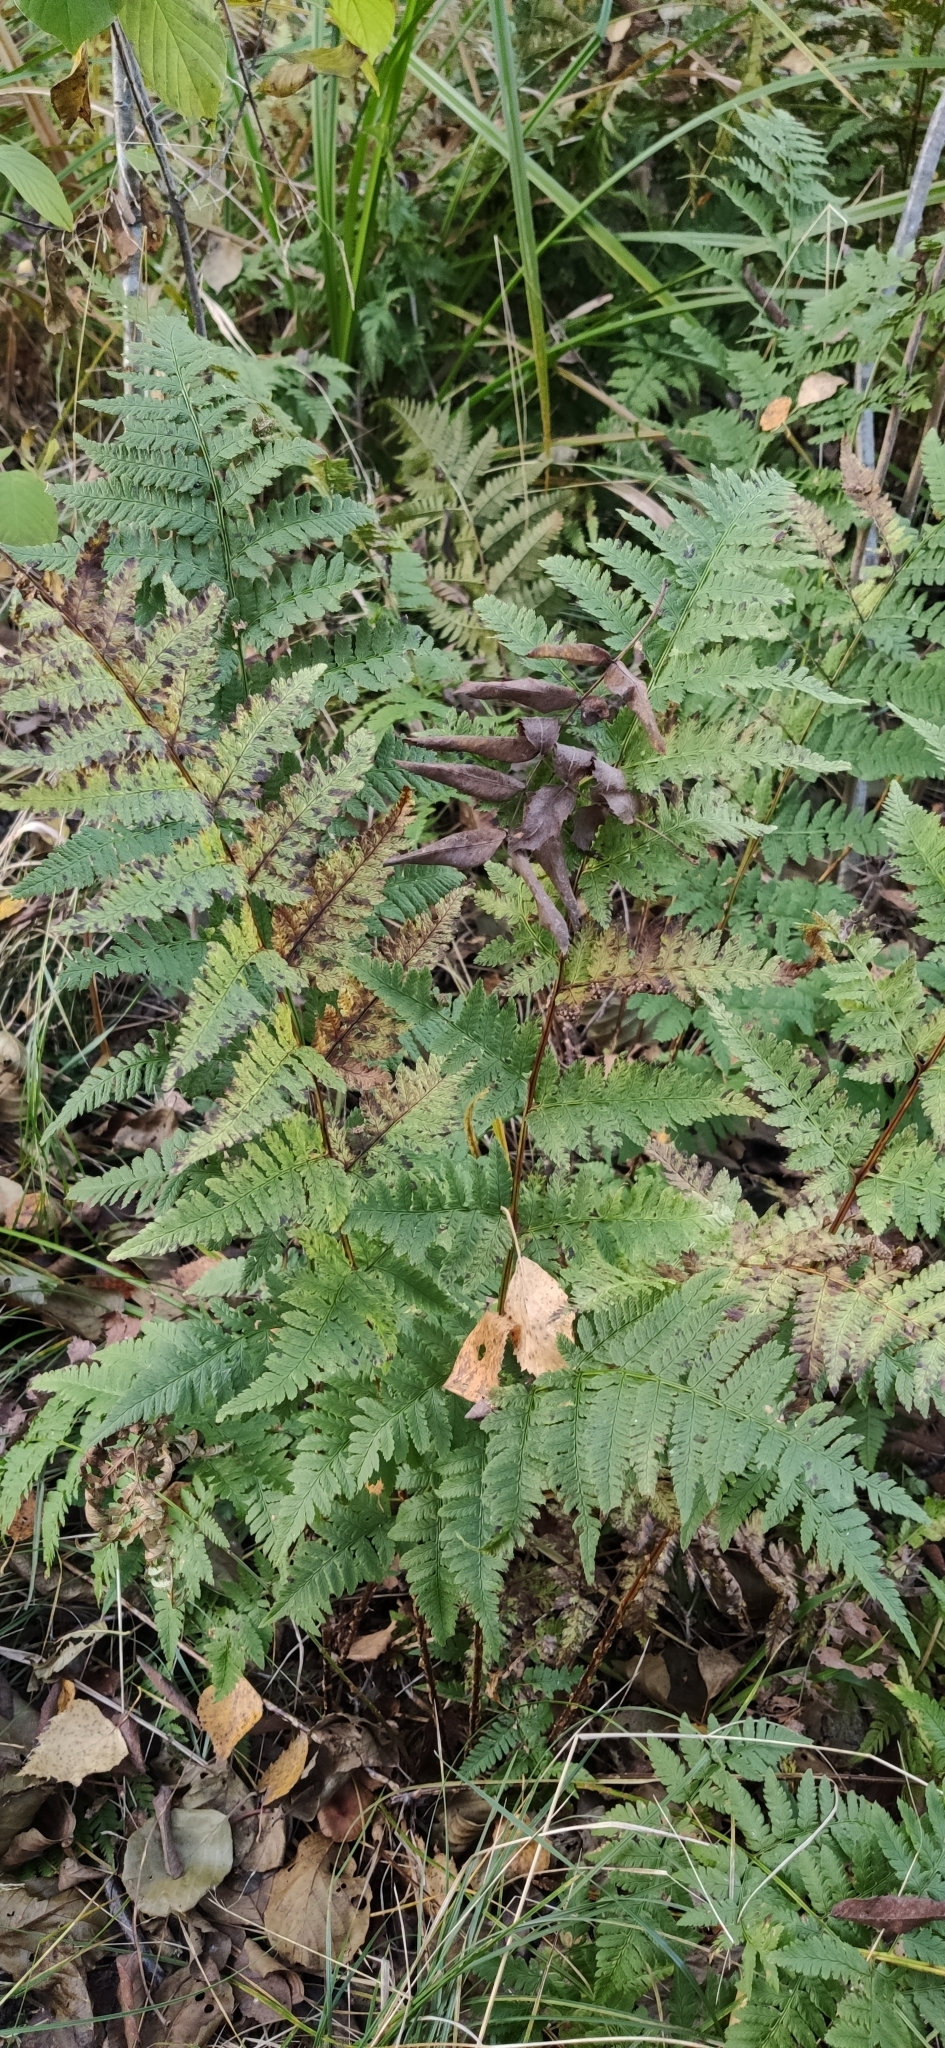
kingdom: Plantae
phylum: Tracheophyta
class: Polypodiopsida
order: Polypodiales
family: Dryopteridaceae
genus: Dryopteris
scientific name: Dryopteris carthusiana
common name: Narrow buckler-fern
